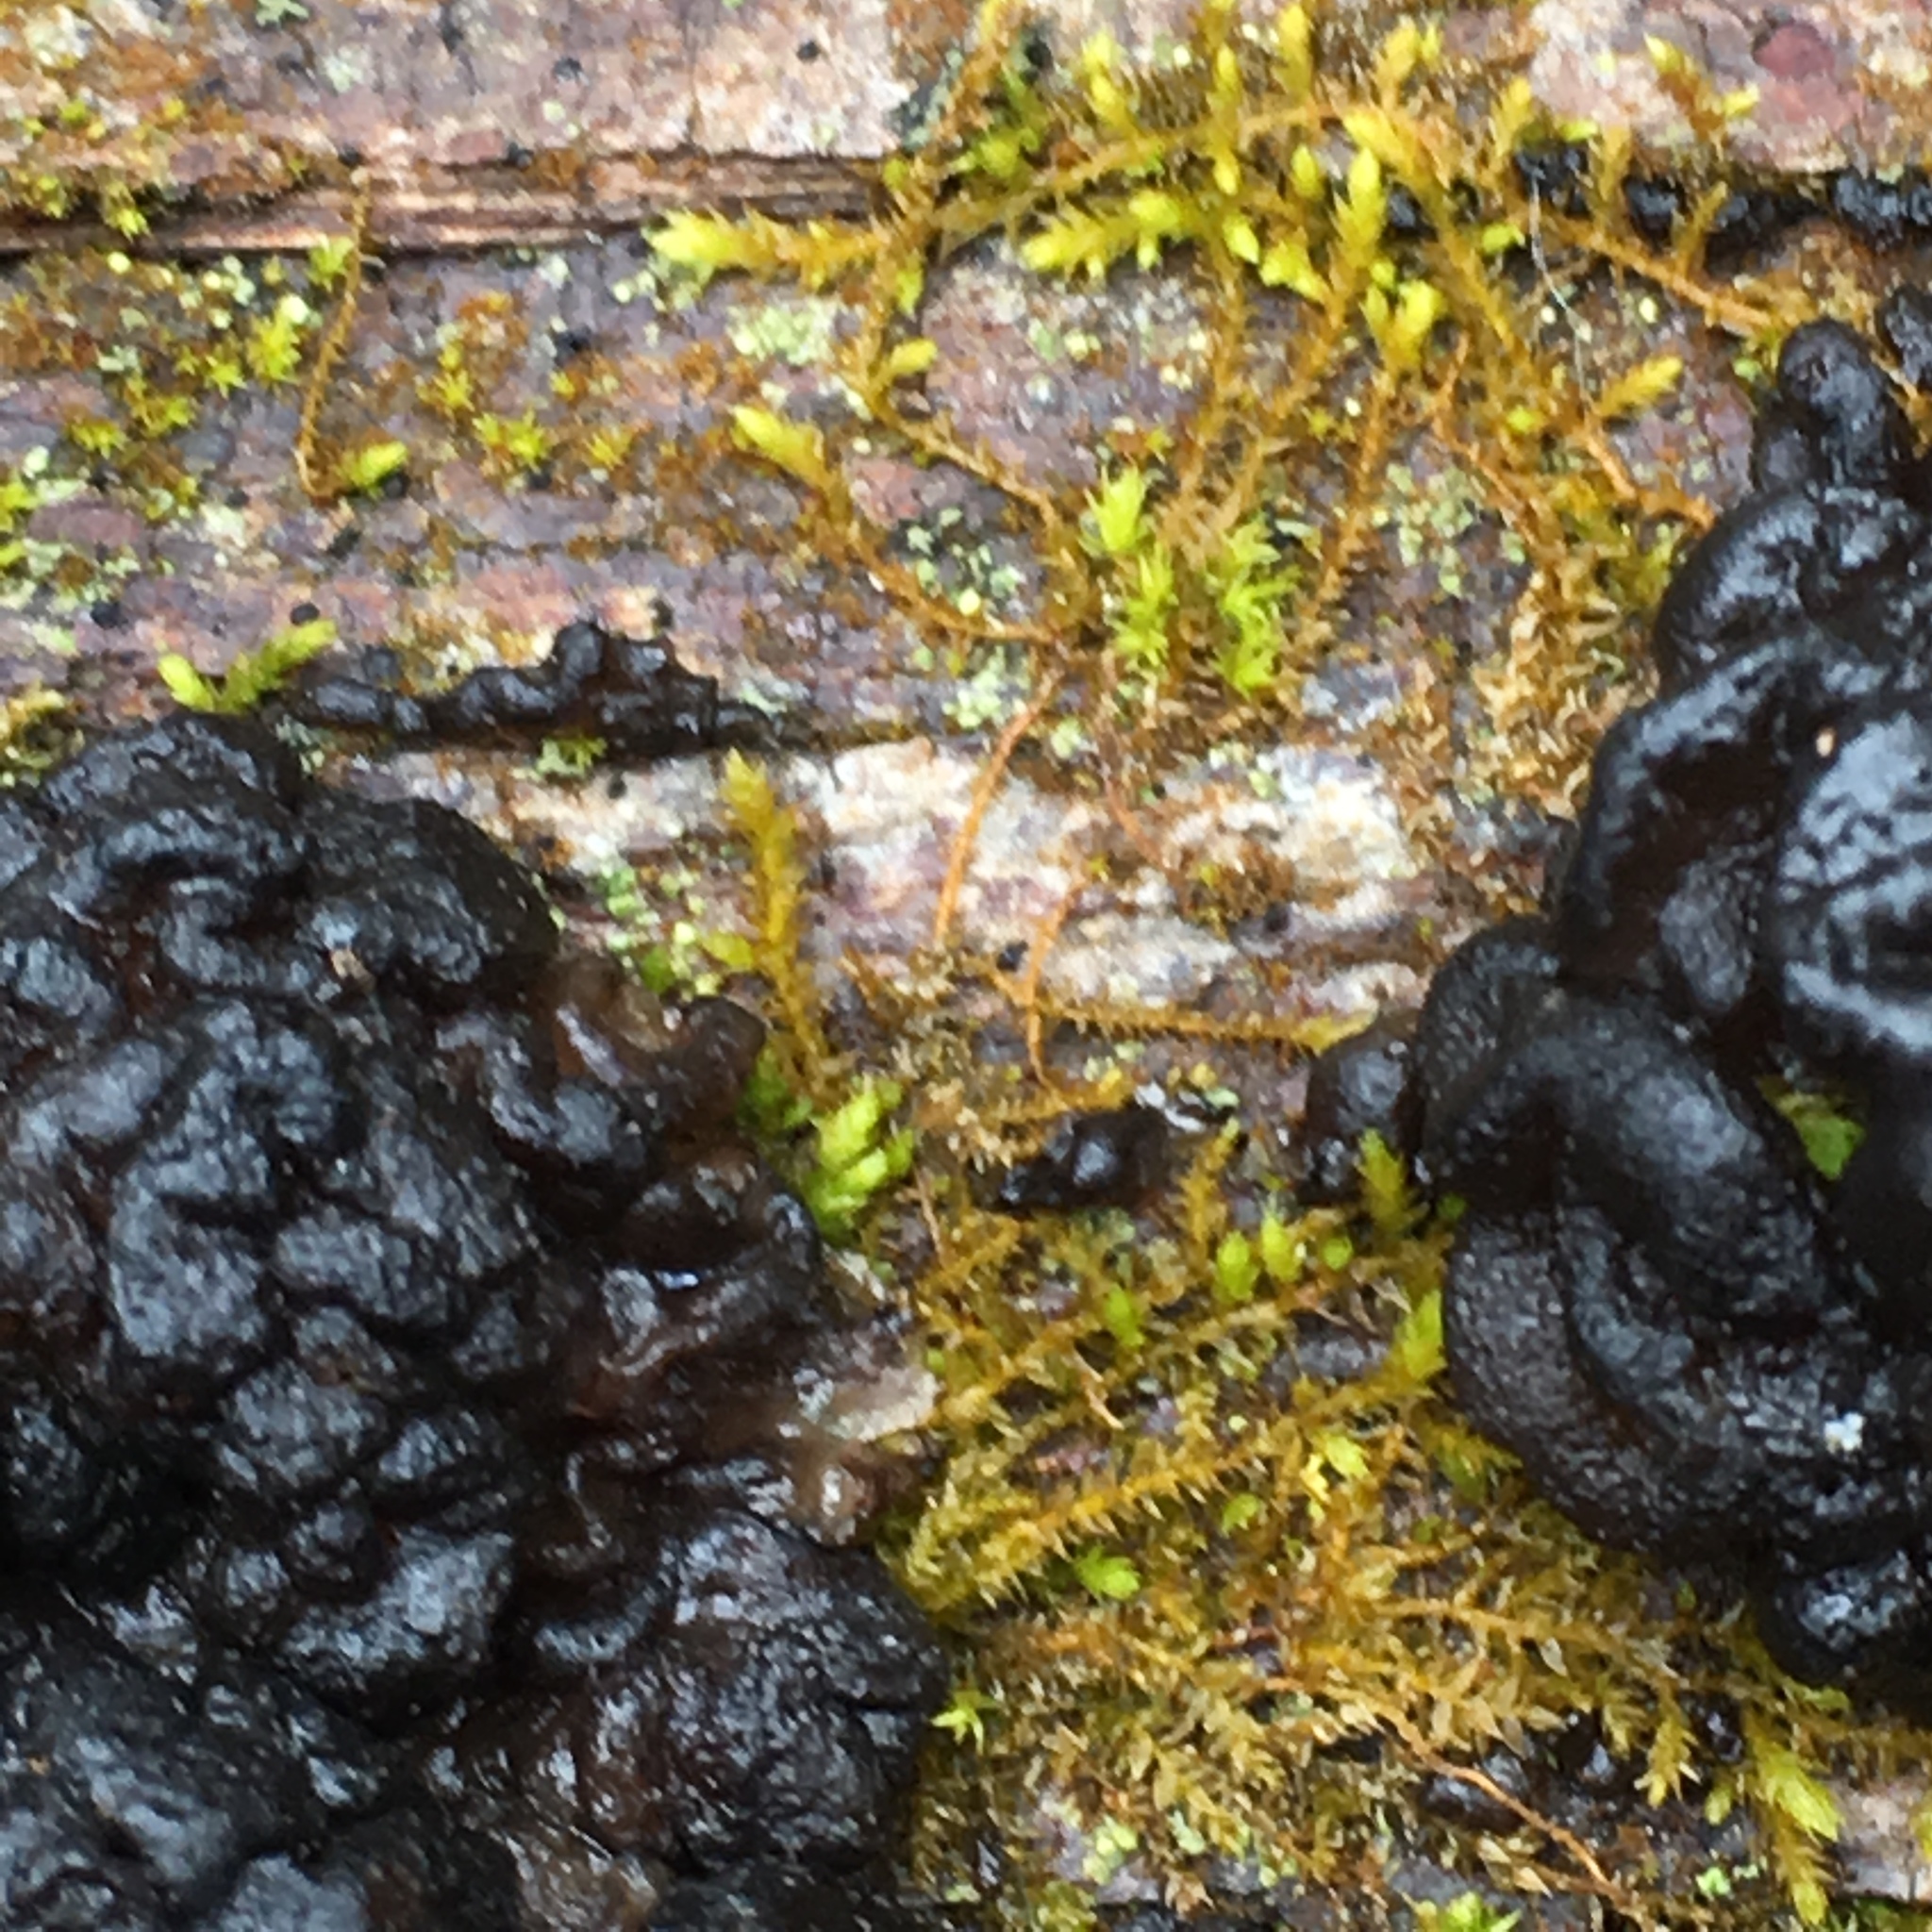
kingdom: Fungi
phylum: Basidiomycota
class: Agaricomycetes
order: Auriculariales
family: Auriculariaceae
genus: Exidia
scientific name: Exidia glandulosa
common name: Witches' butter
